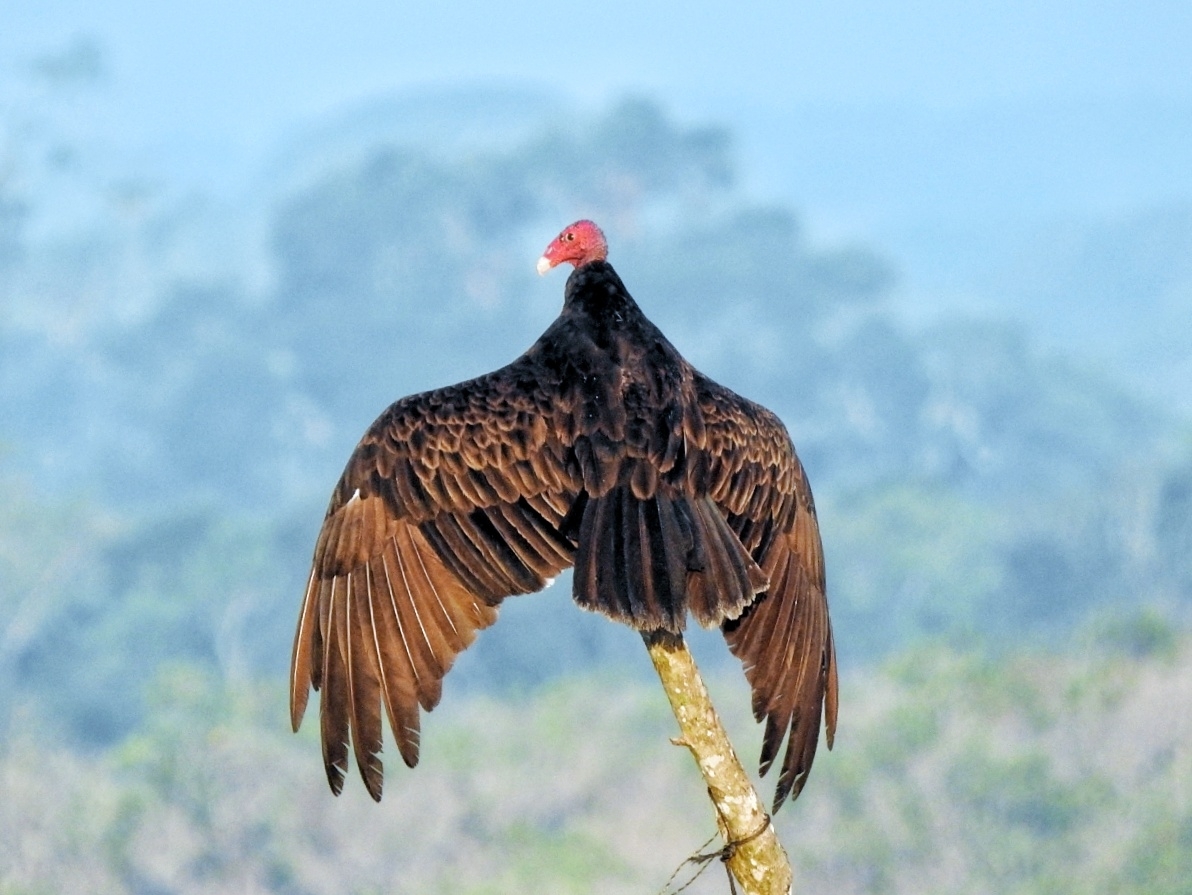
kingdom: Animalia
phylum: Chordata
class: Aves
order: Accipitriformes
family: Cathartidae
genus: Cathartes
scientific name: Cathartes aura
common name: Turkey vulture
